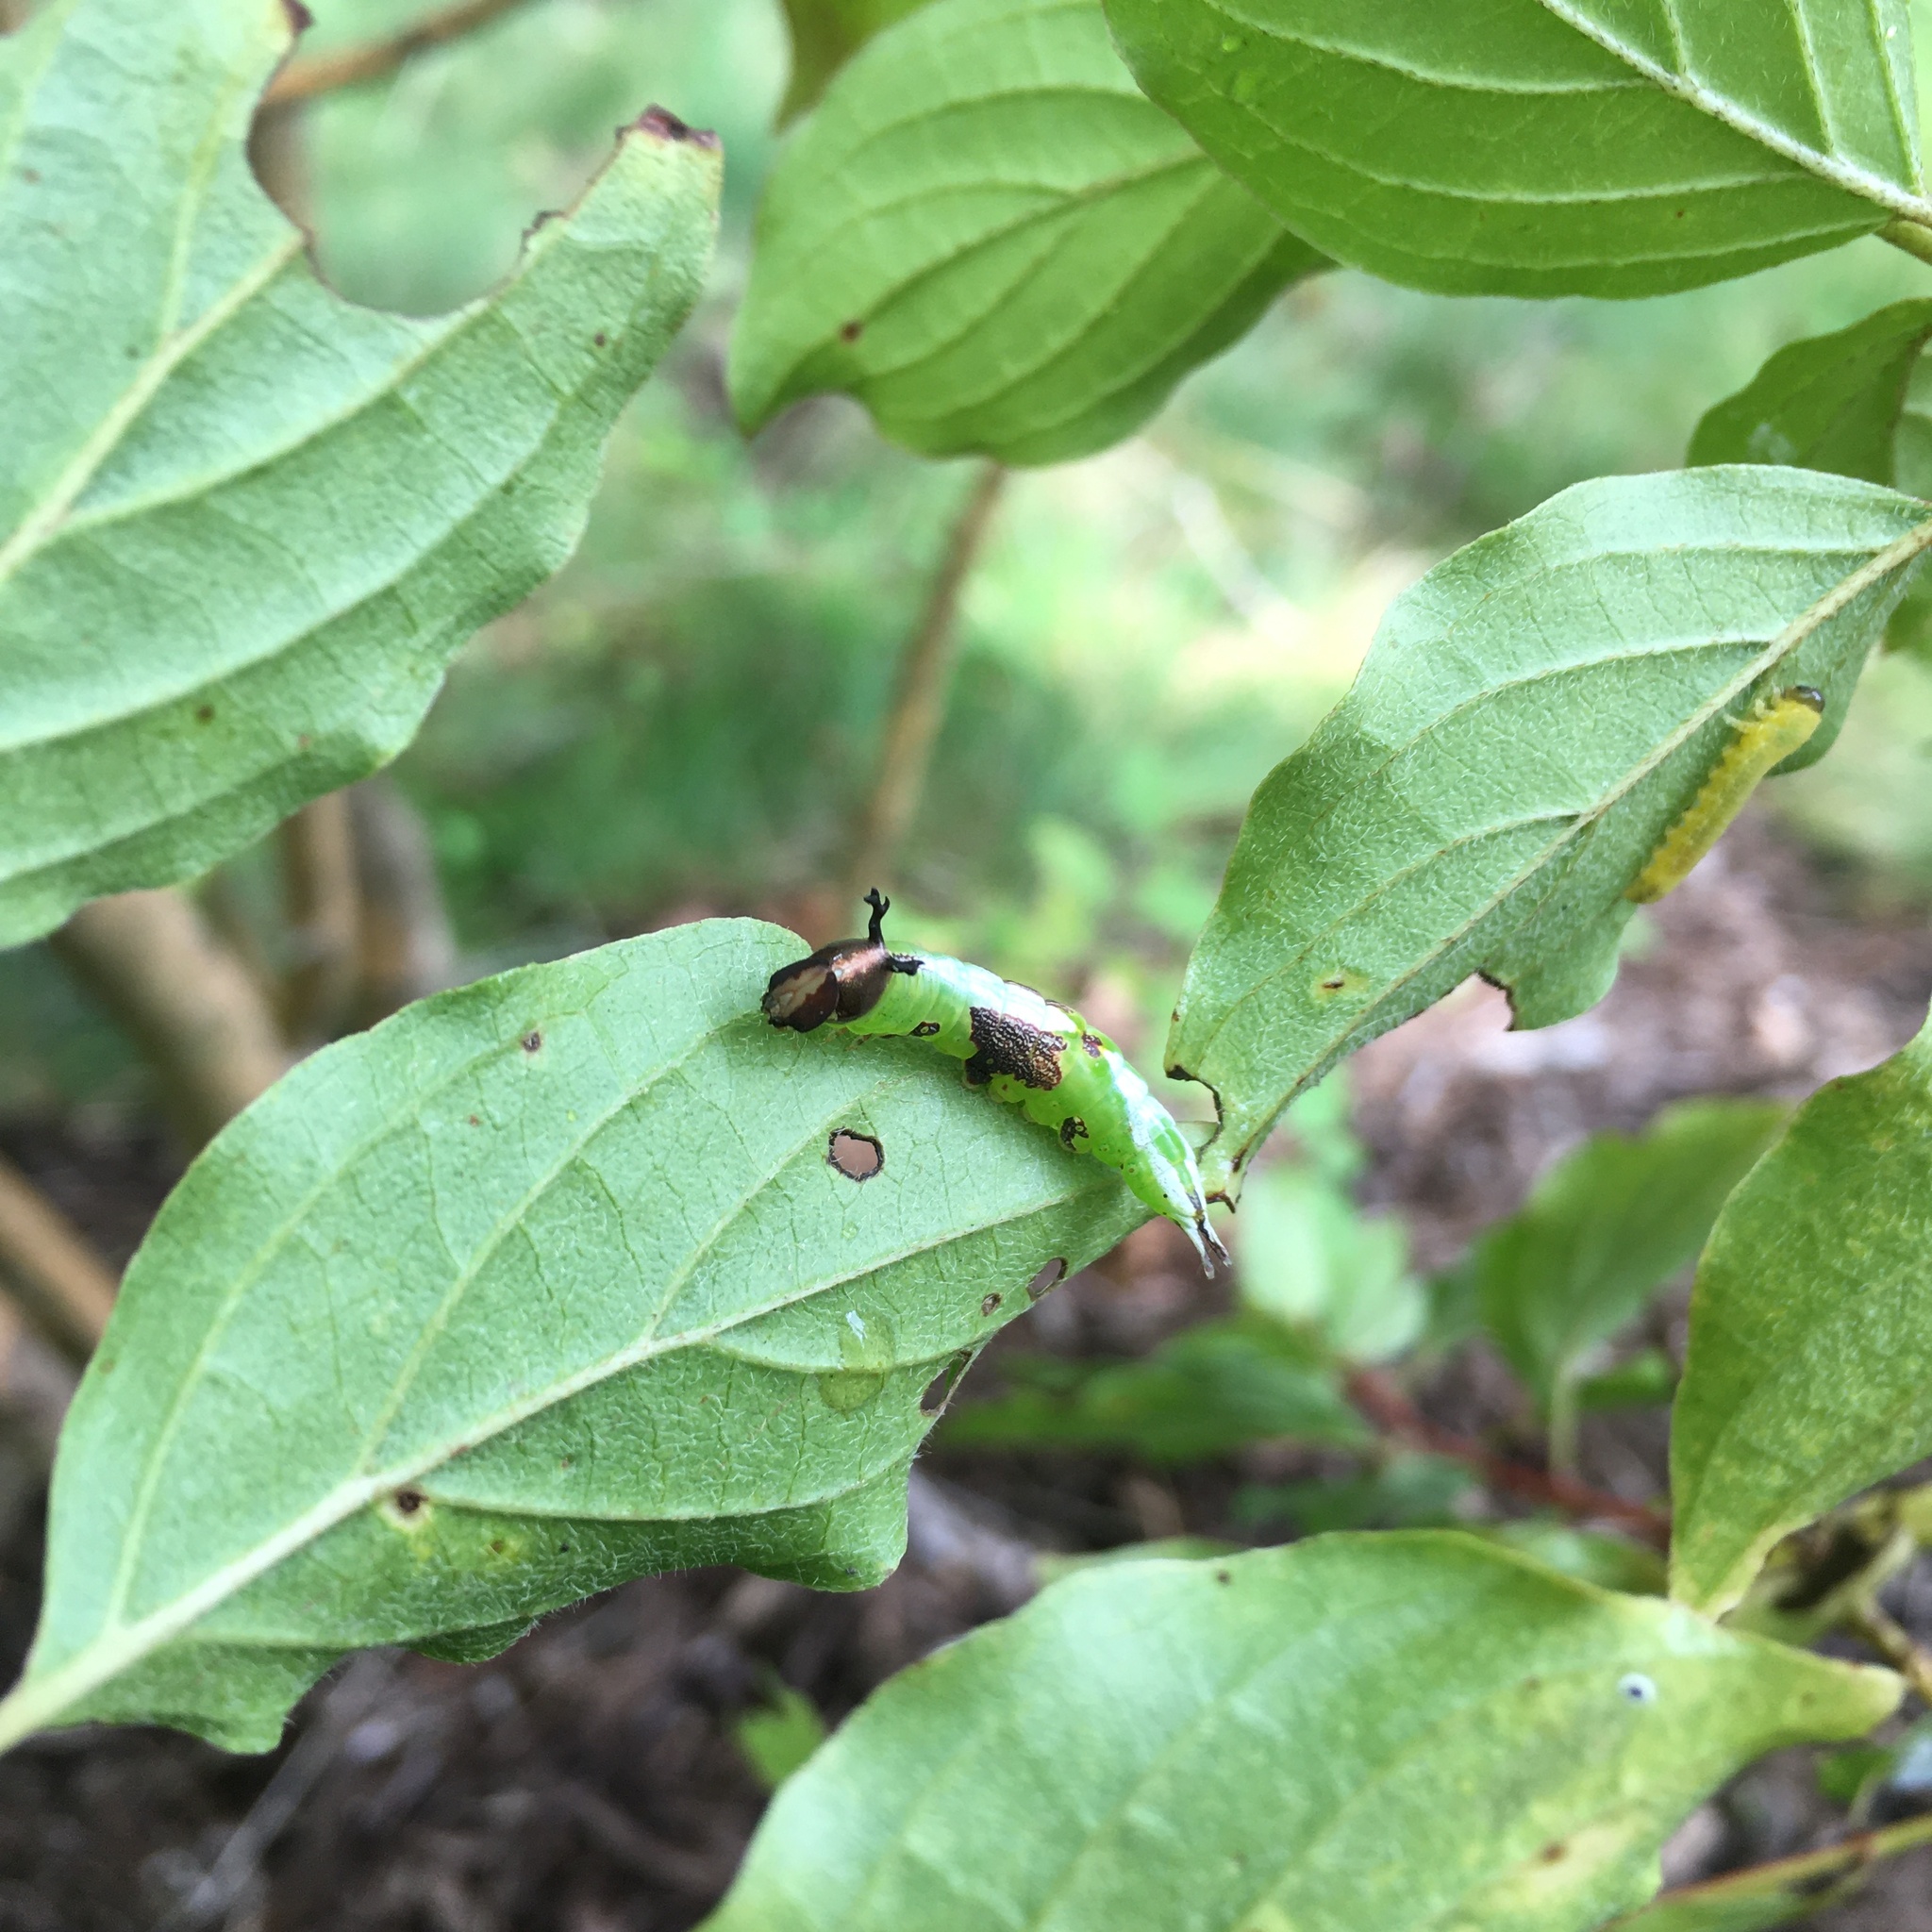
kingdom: Animalia
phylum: Arthropoda
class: Insecta
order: Lepidoptera
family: Notodontidae
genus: Disphragis
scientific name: Disphragis Cecrita biundata
